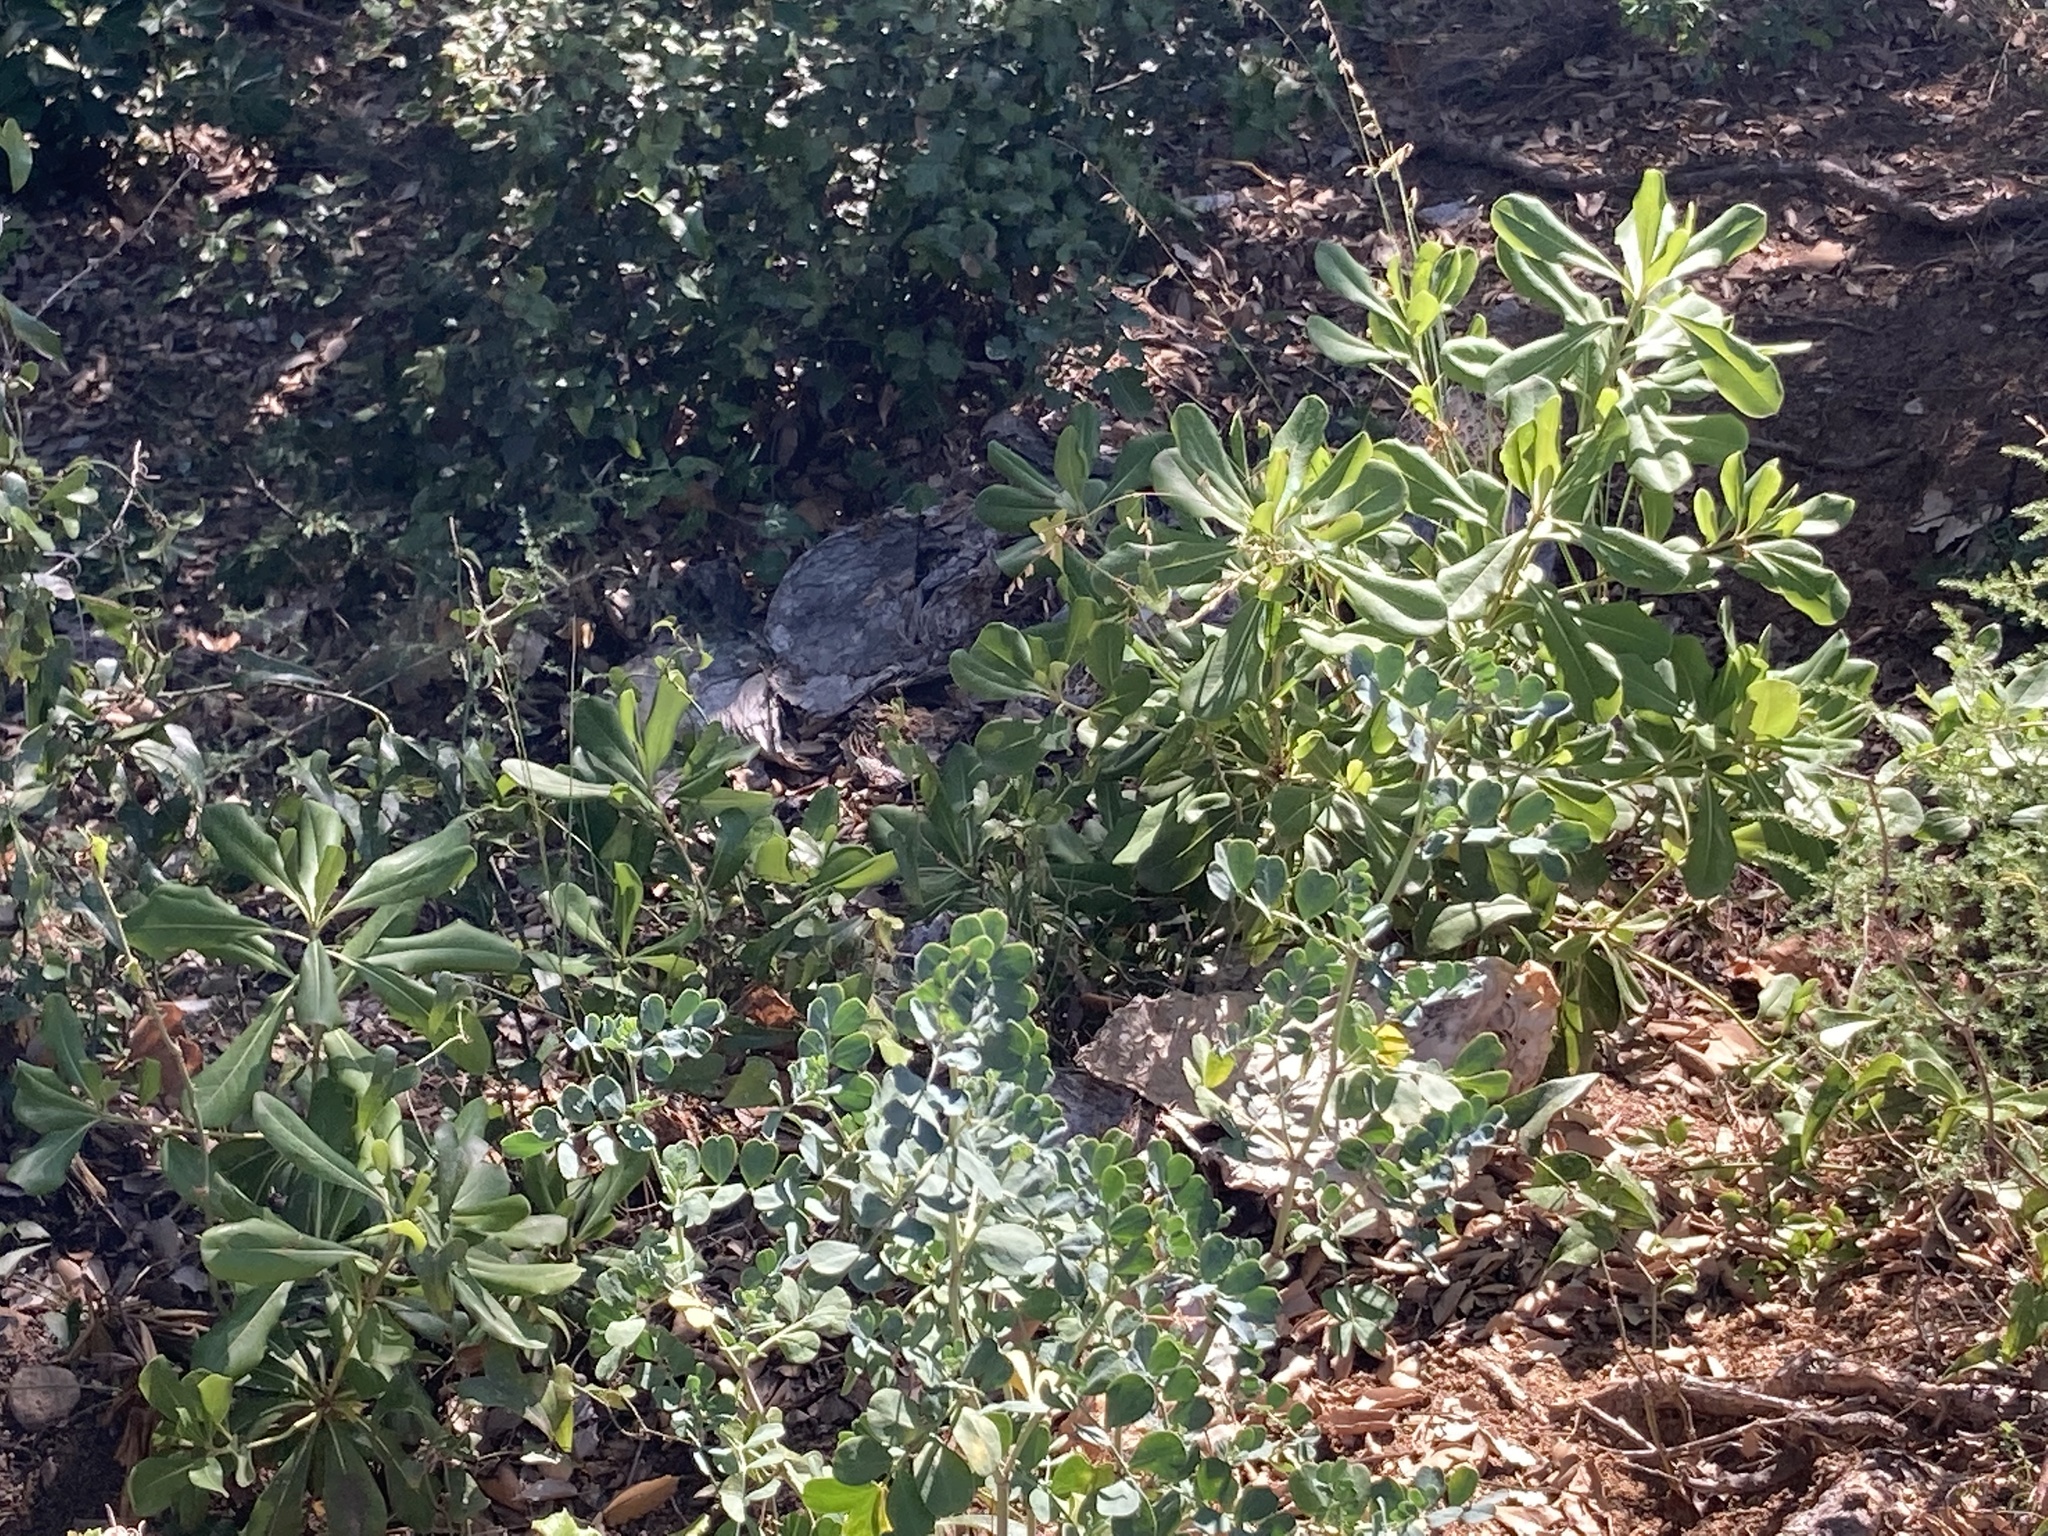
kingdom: Plantae
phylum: Tracheophyta
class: Magnoliopsida
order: Apiales
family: Pittosporaceae
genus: Pittosporum
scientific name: Pittosporum tobira
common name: Japanese cheesewood
